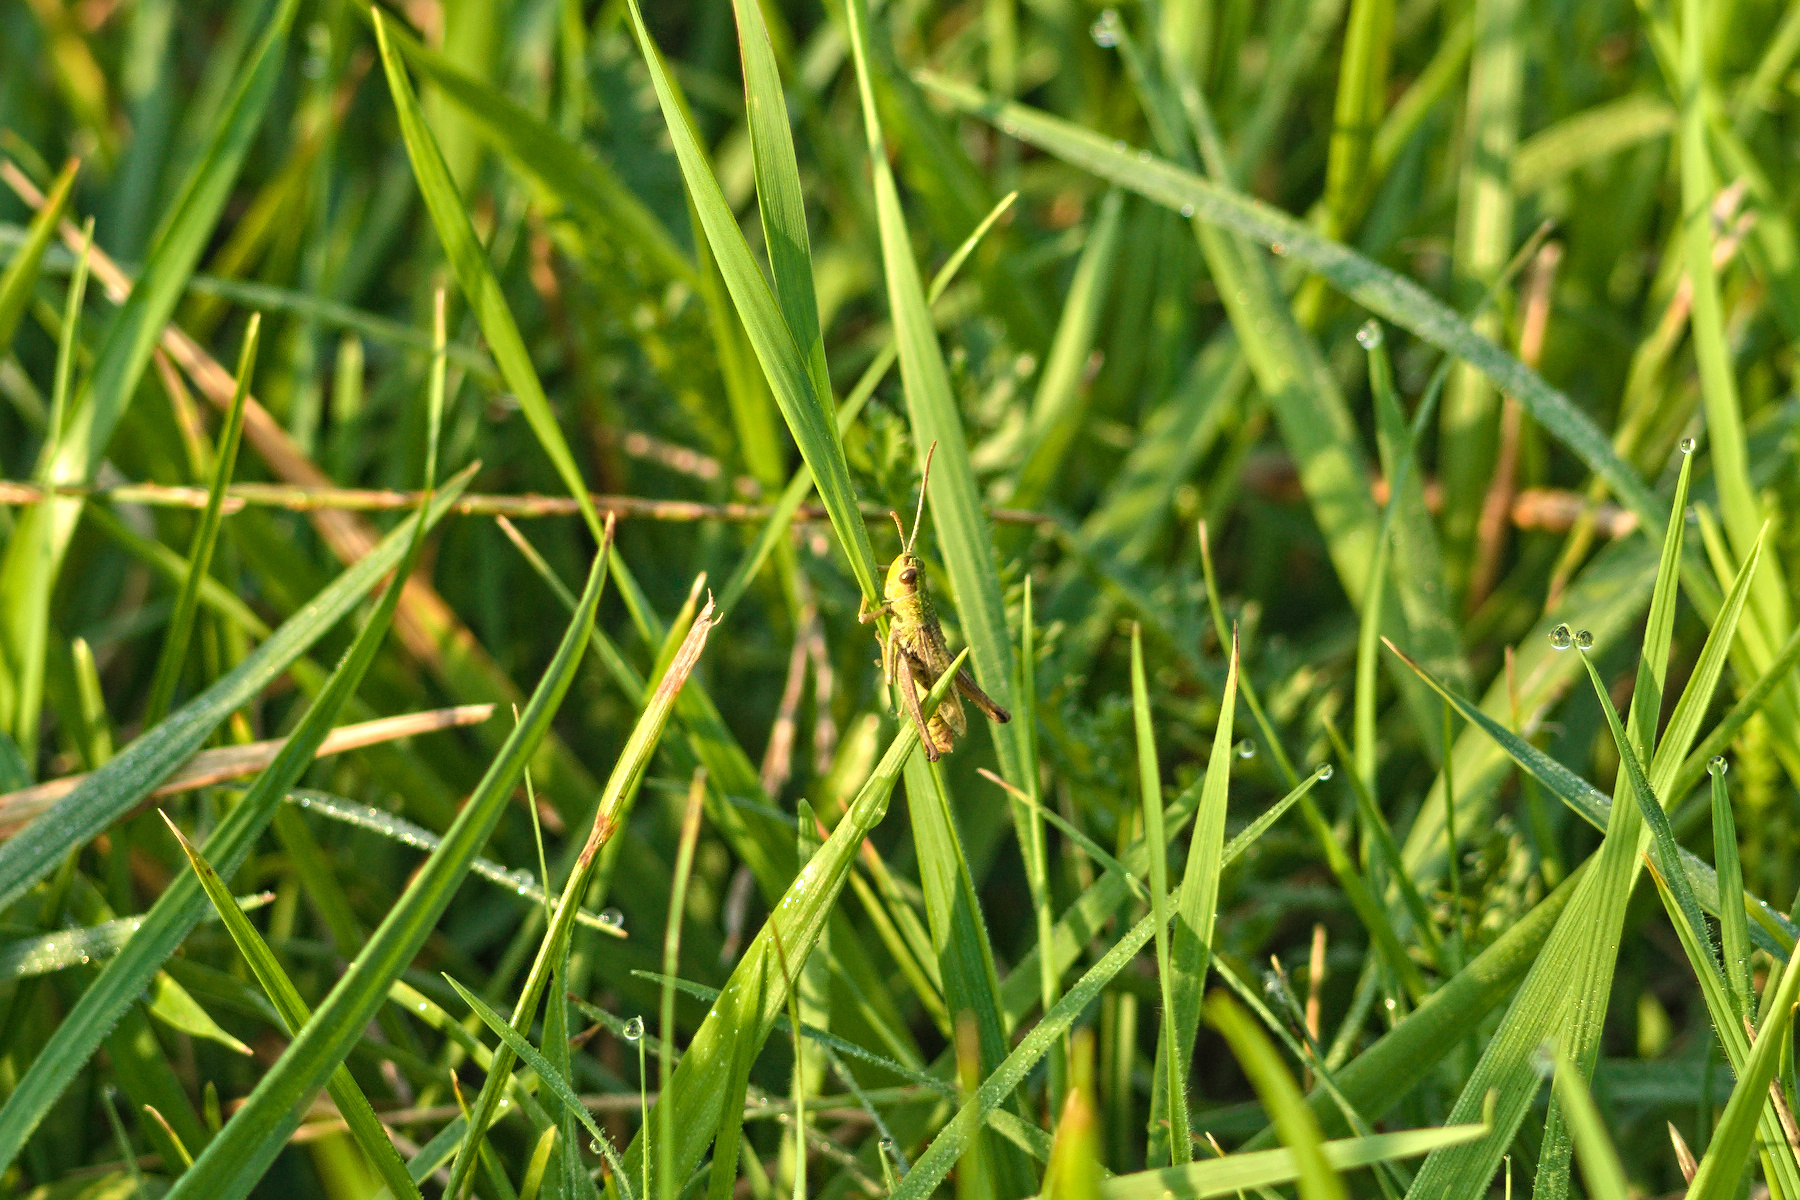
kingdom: Animalia
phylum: Arthropoda
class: Insecta
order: Orthoptera
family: Acrididae
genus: Pseudochorthippus
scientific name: Pseudochorthippus parallelus
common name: Meadow grasshopper
